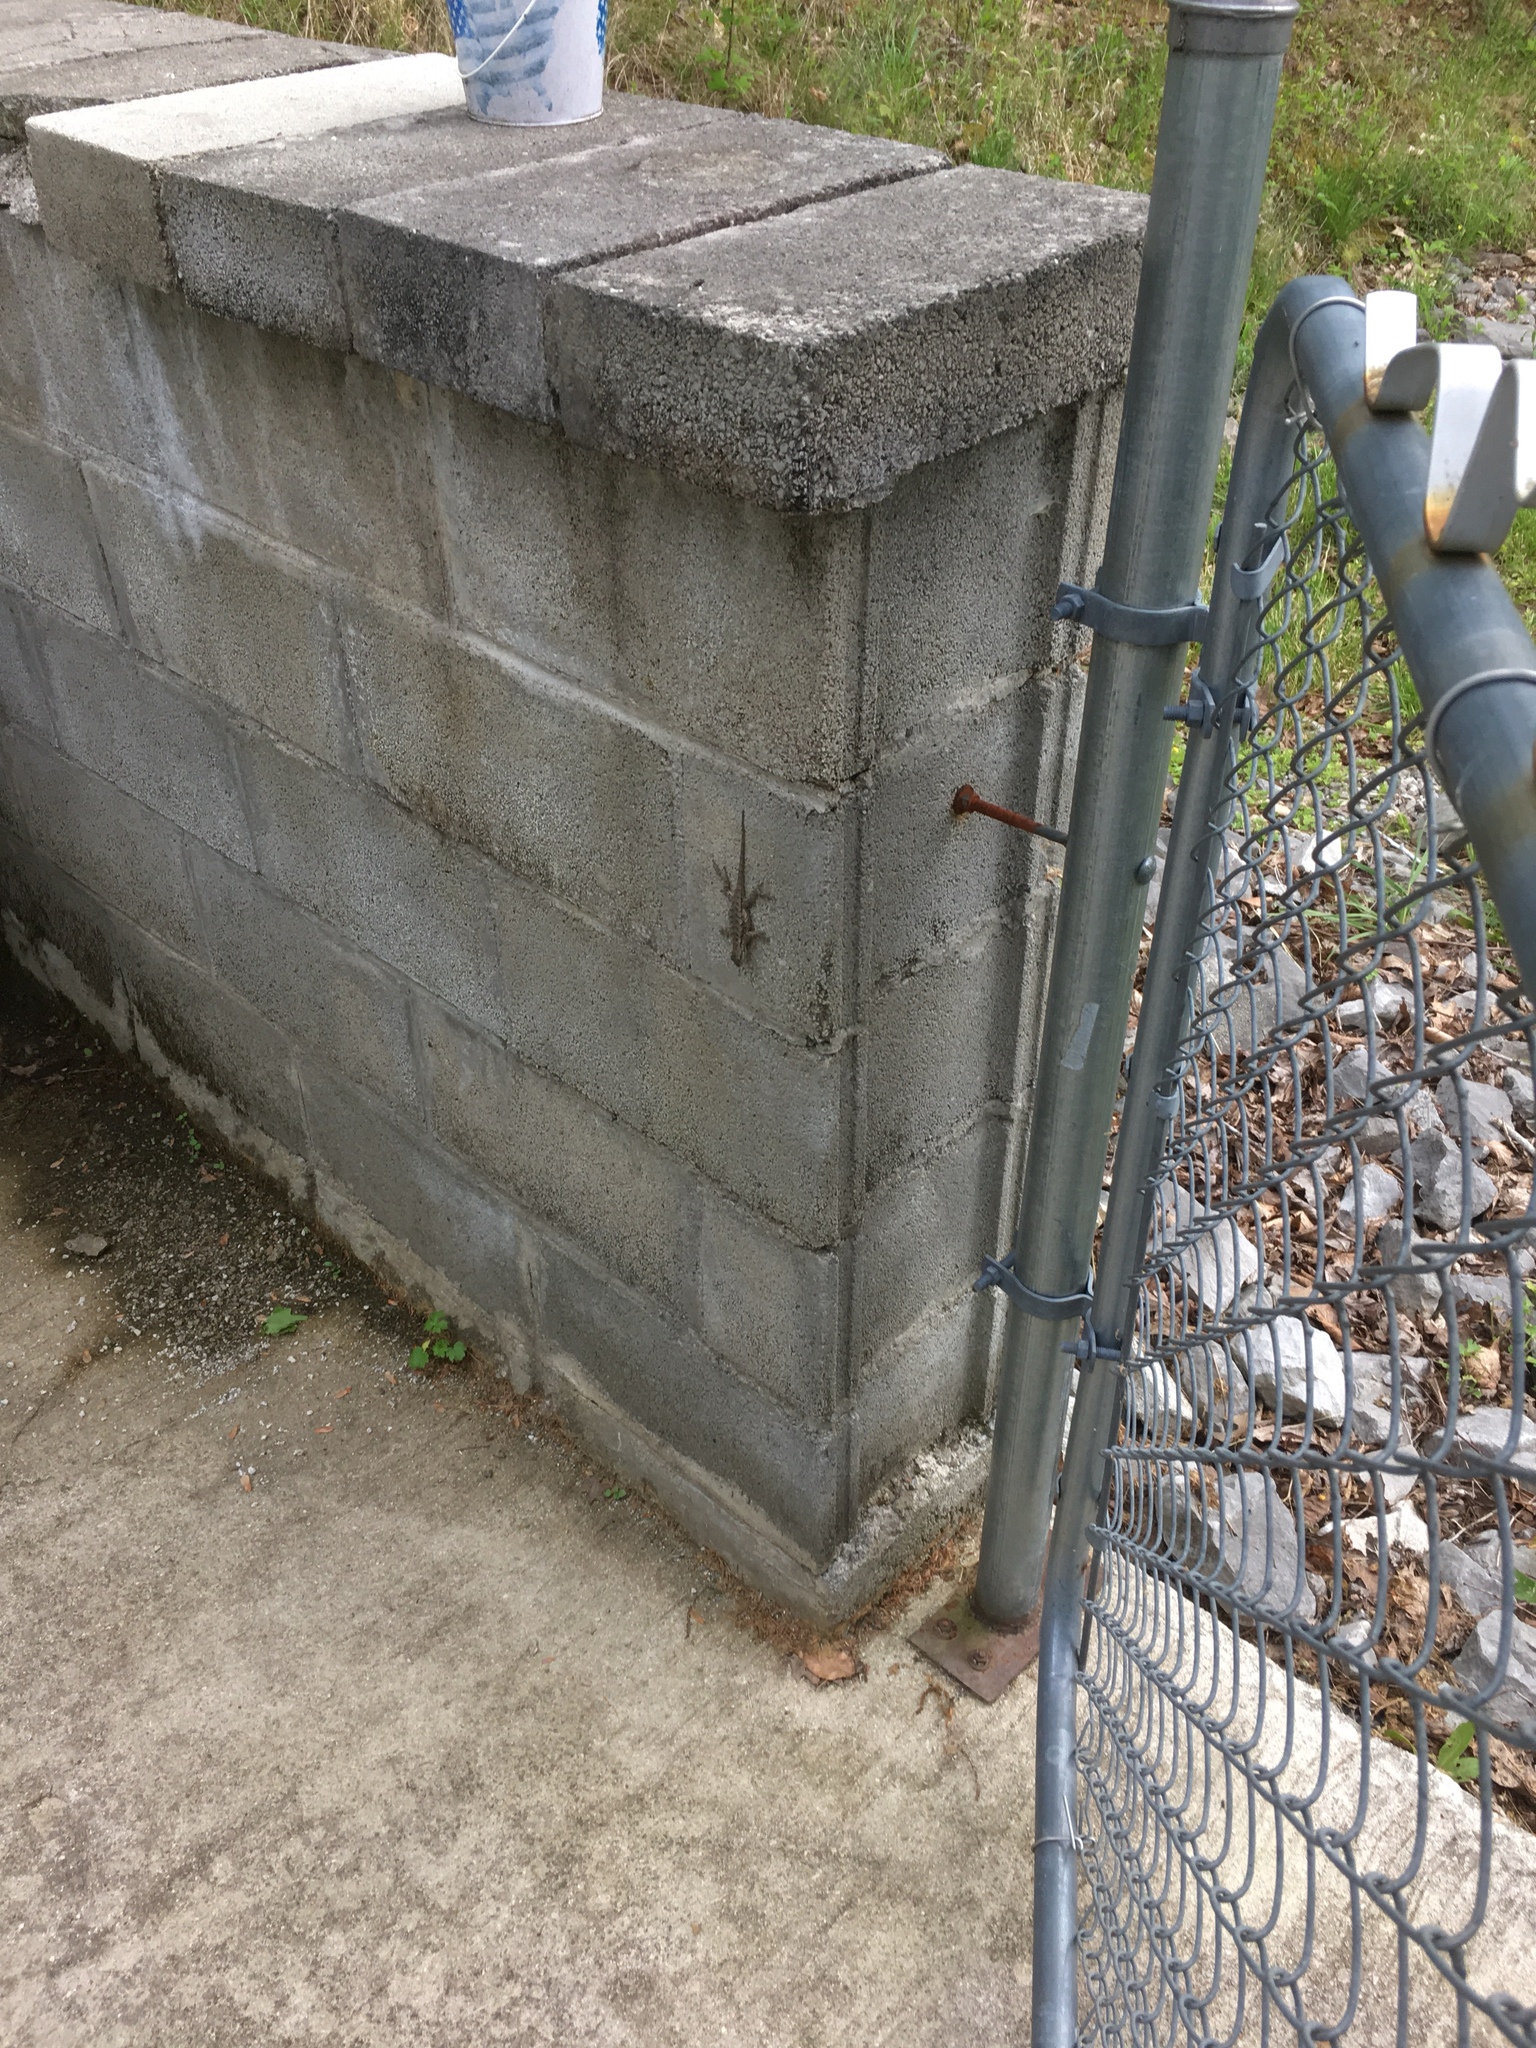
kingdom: Animalia
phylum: Chordata
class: Squamata
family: Phrynosomatidae
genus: Sceloporus
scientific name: Sceloporus undulatus
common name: Eastern fence lizard
